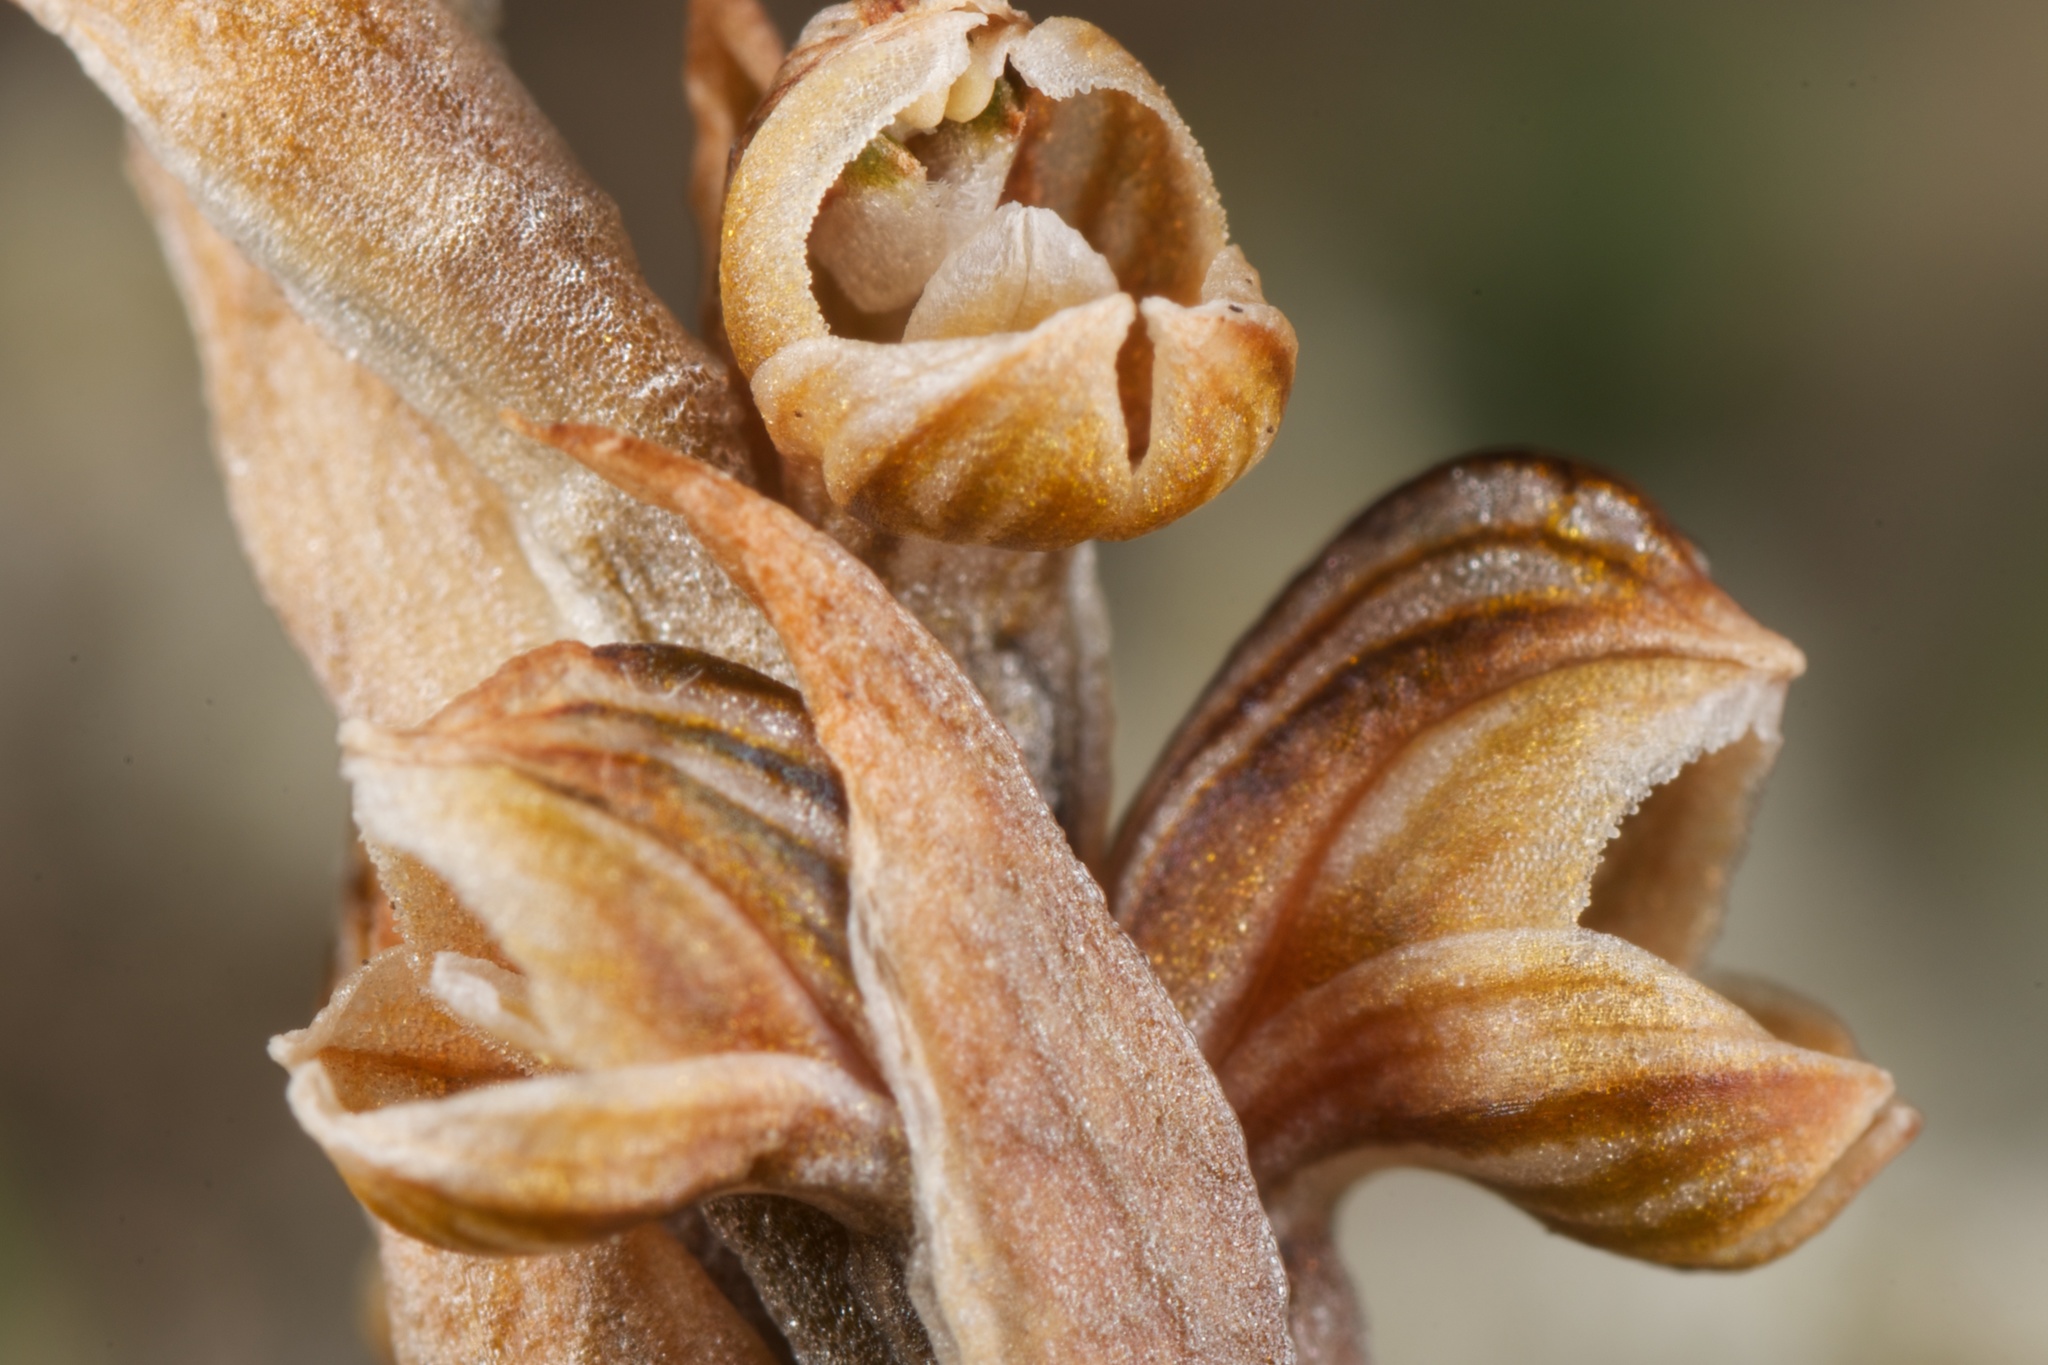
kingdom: Plantae
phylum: Tracheophyta
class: Liliopsida
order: Asparagales
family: Orchidaceae
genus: Pterostylis
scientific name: Pterostylis tristis
